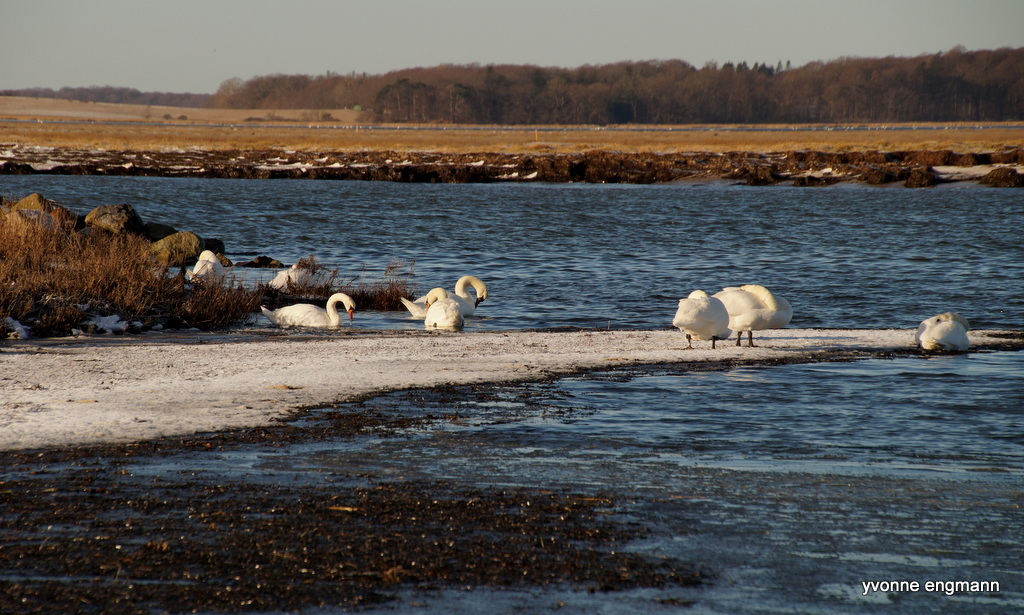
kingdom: Animalia
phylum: Chordata
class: Aves
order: Anseriformes
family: Anatidae
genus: Cygnus
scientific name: Cygnus olor
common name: Mute swan
